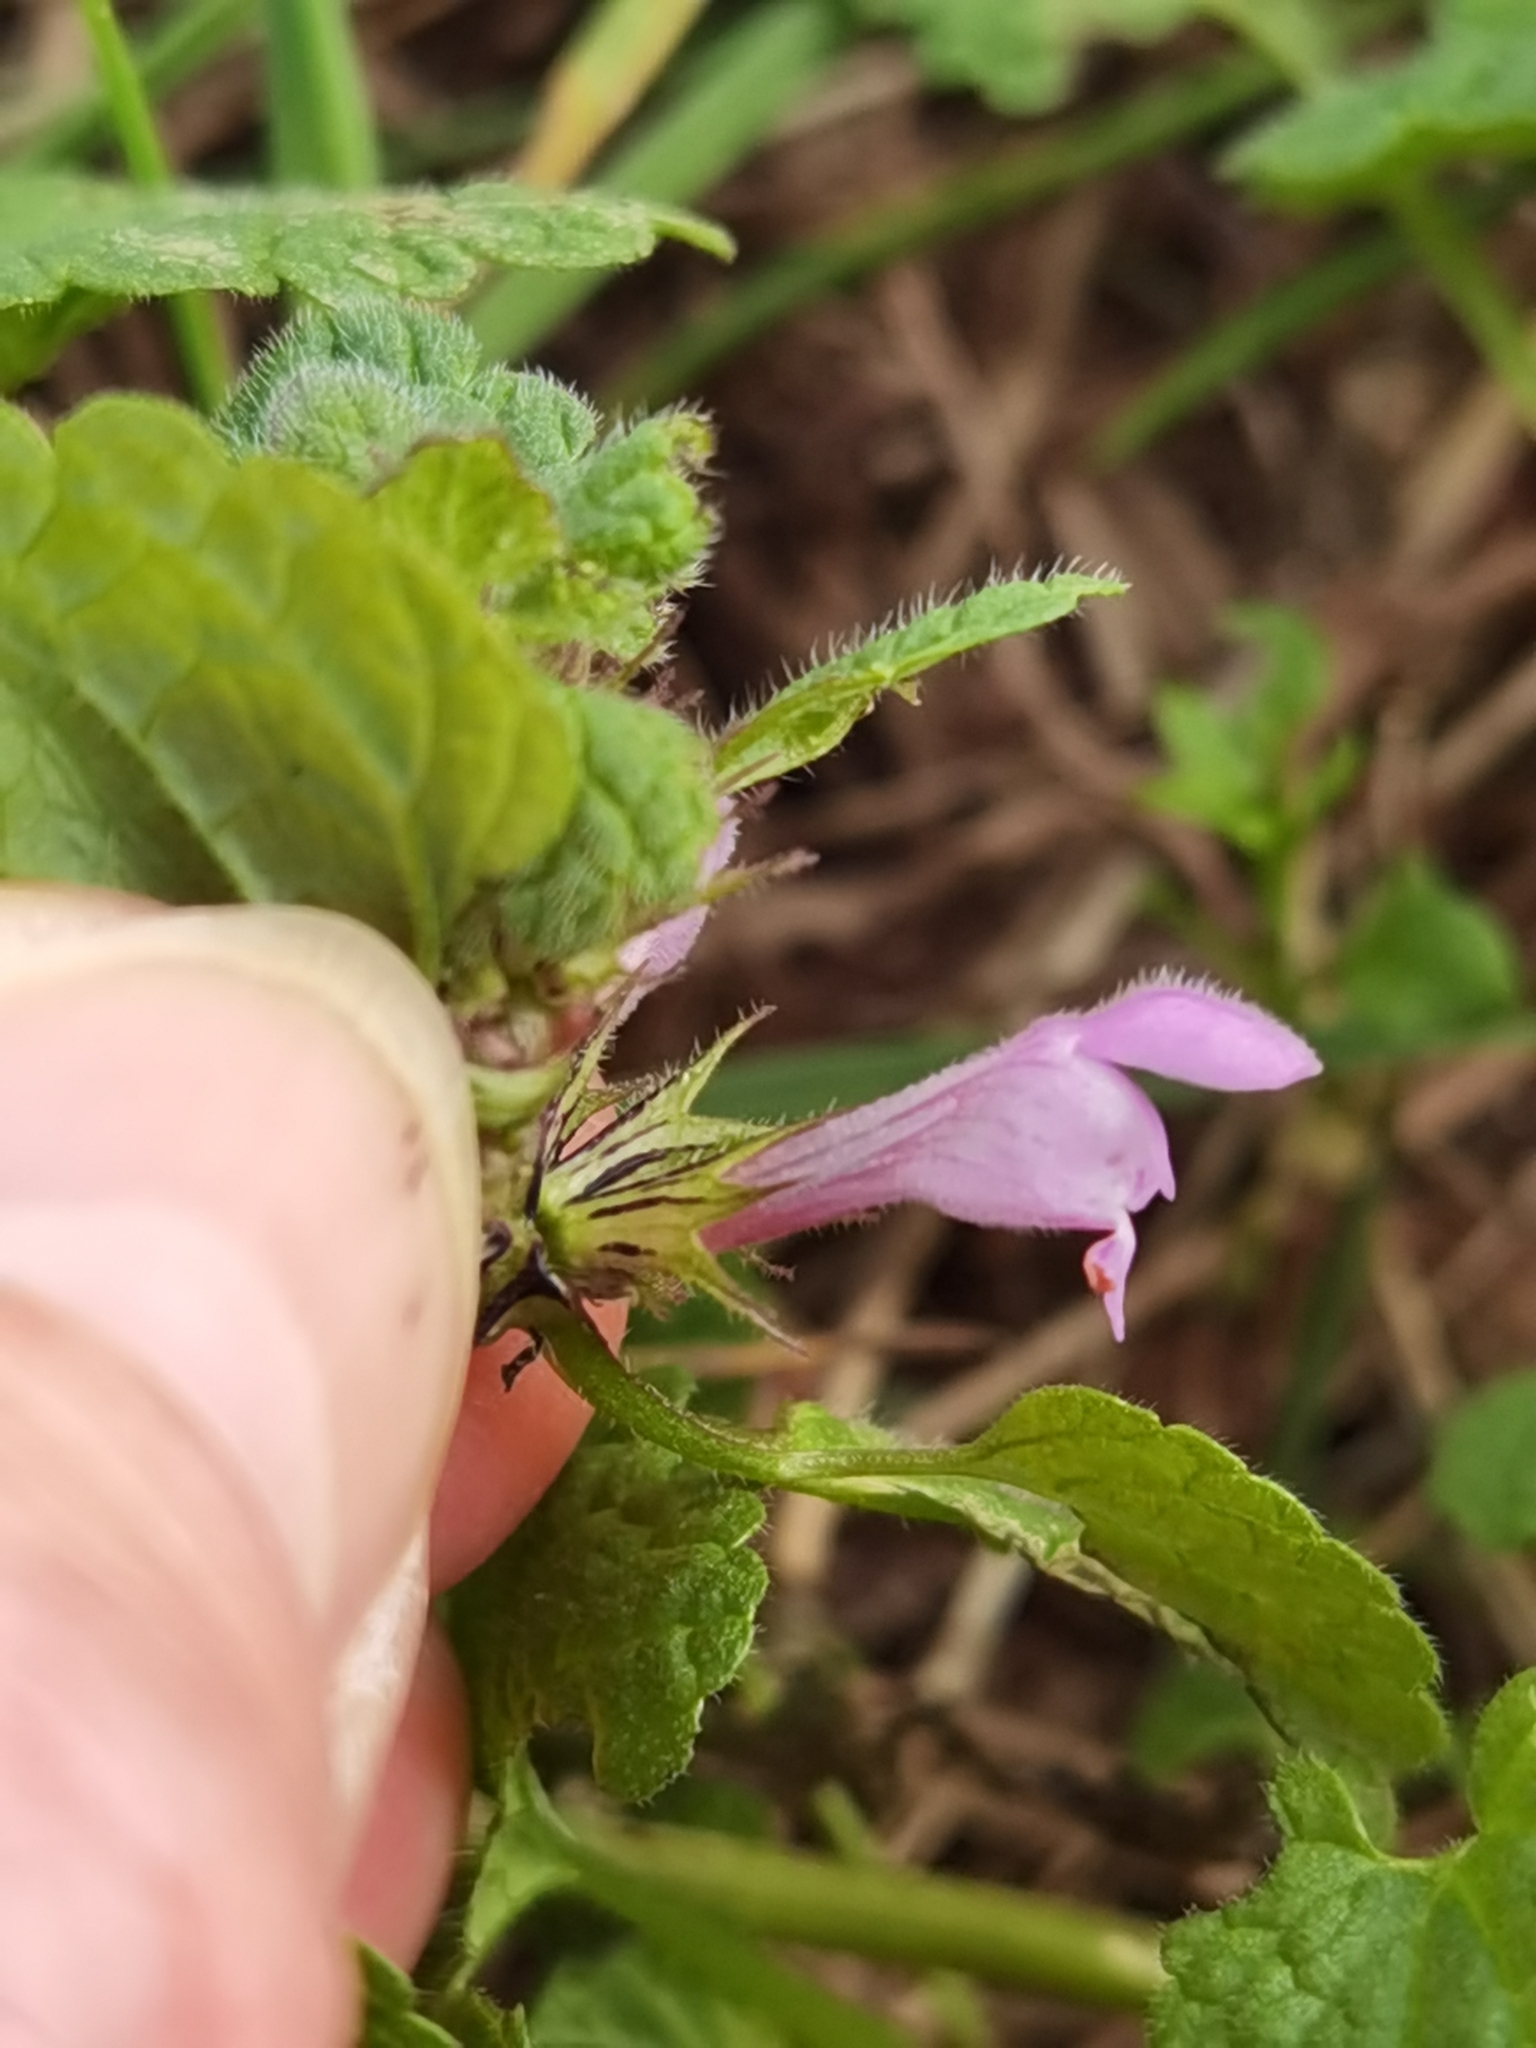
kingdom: Plantae
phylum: Tracheophyta
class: Magnoliopsida
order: Lamiales
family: Lamiaceae
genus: Lamium
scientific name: Lamium purpureum
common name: Red dead-nettle
